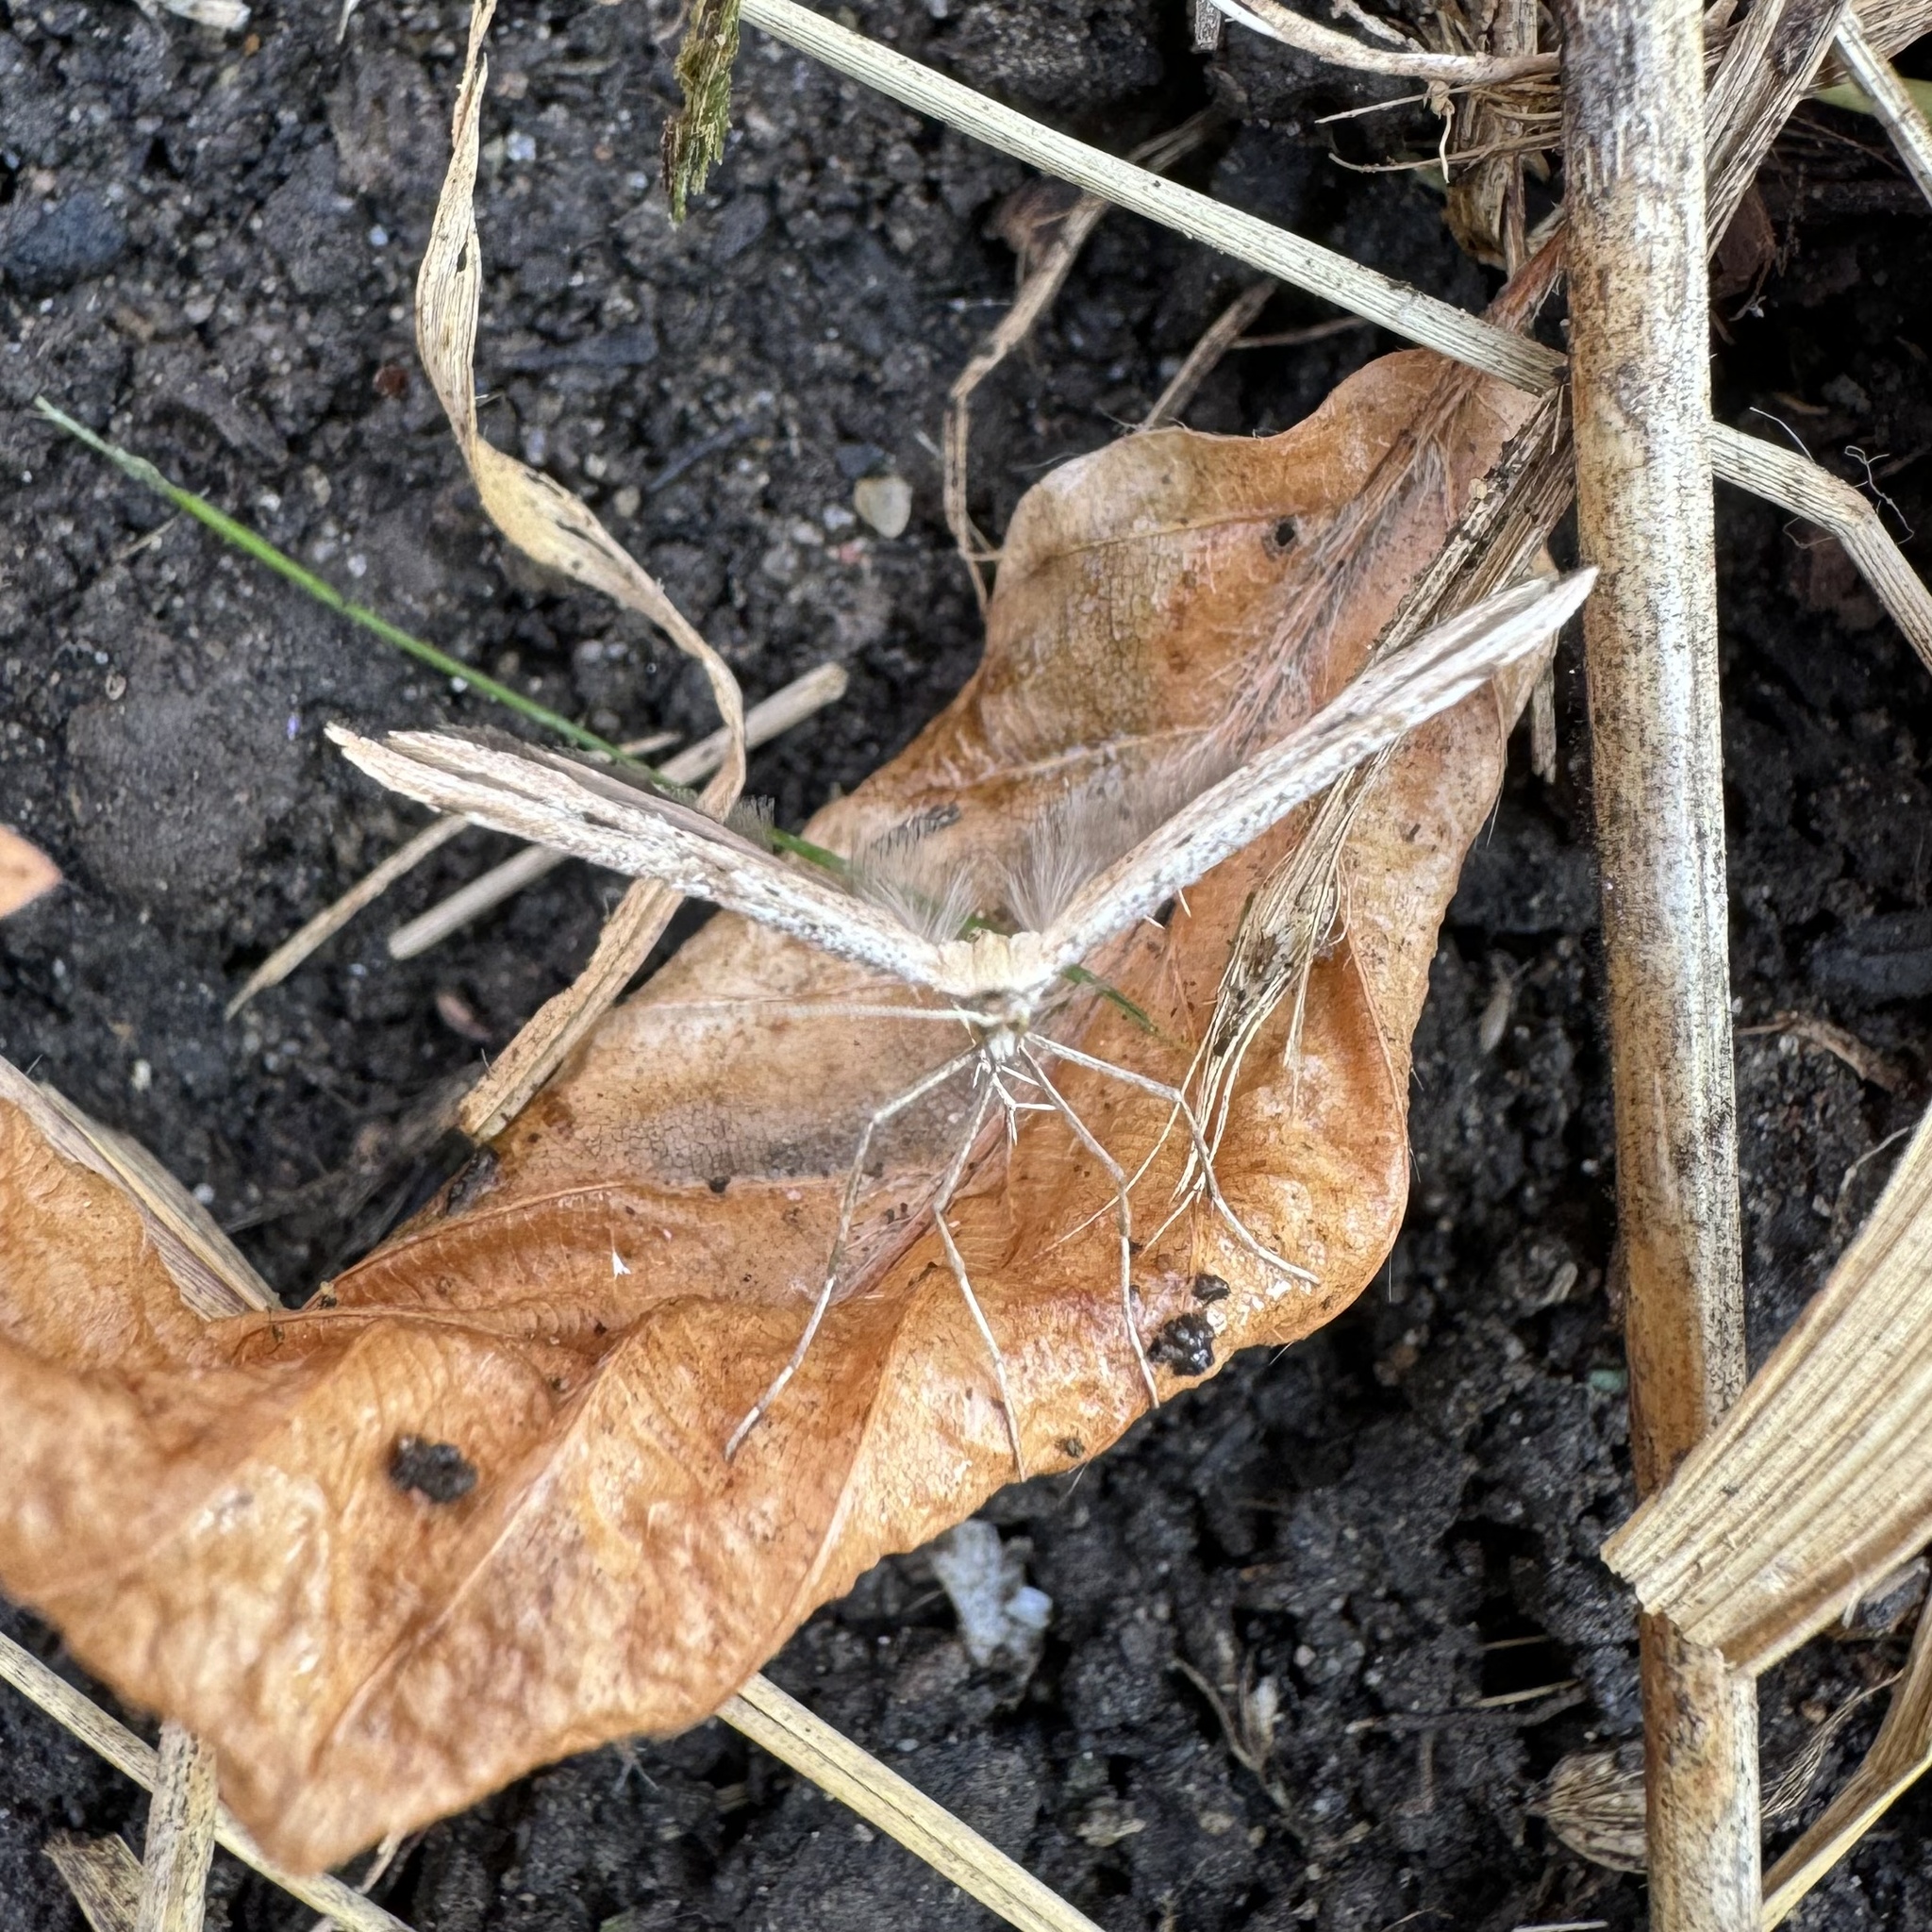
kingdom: Animalia
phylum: Arthropoda
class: Insecta
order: Lepidoptera
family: Pterophoridae
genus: Emmelina
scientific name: Emmelina monodactyla
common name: Common plume
